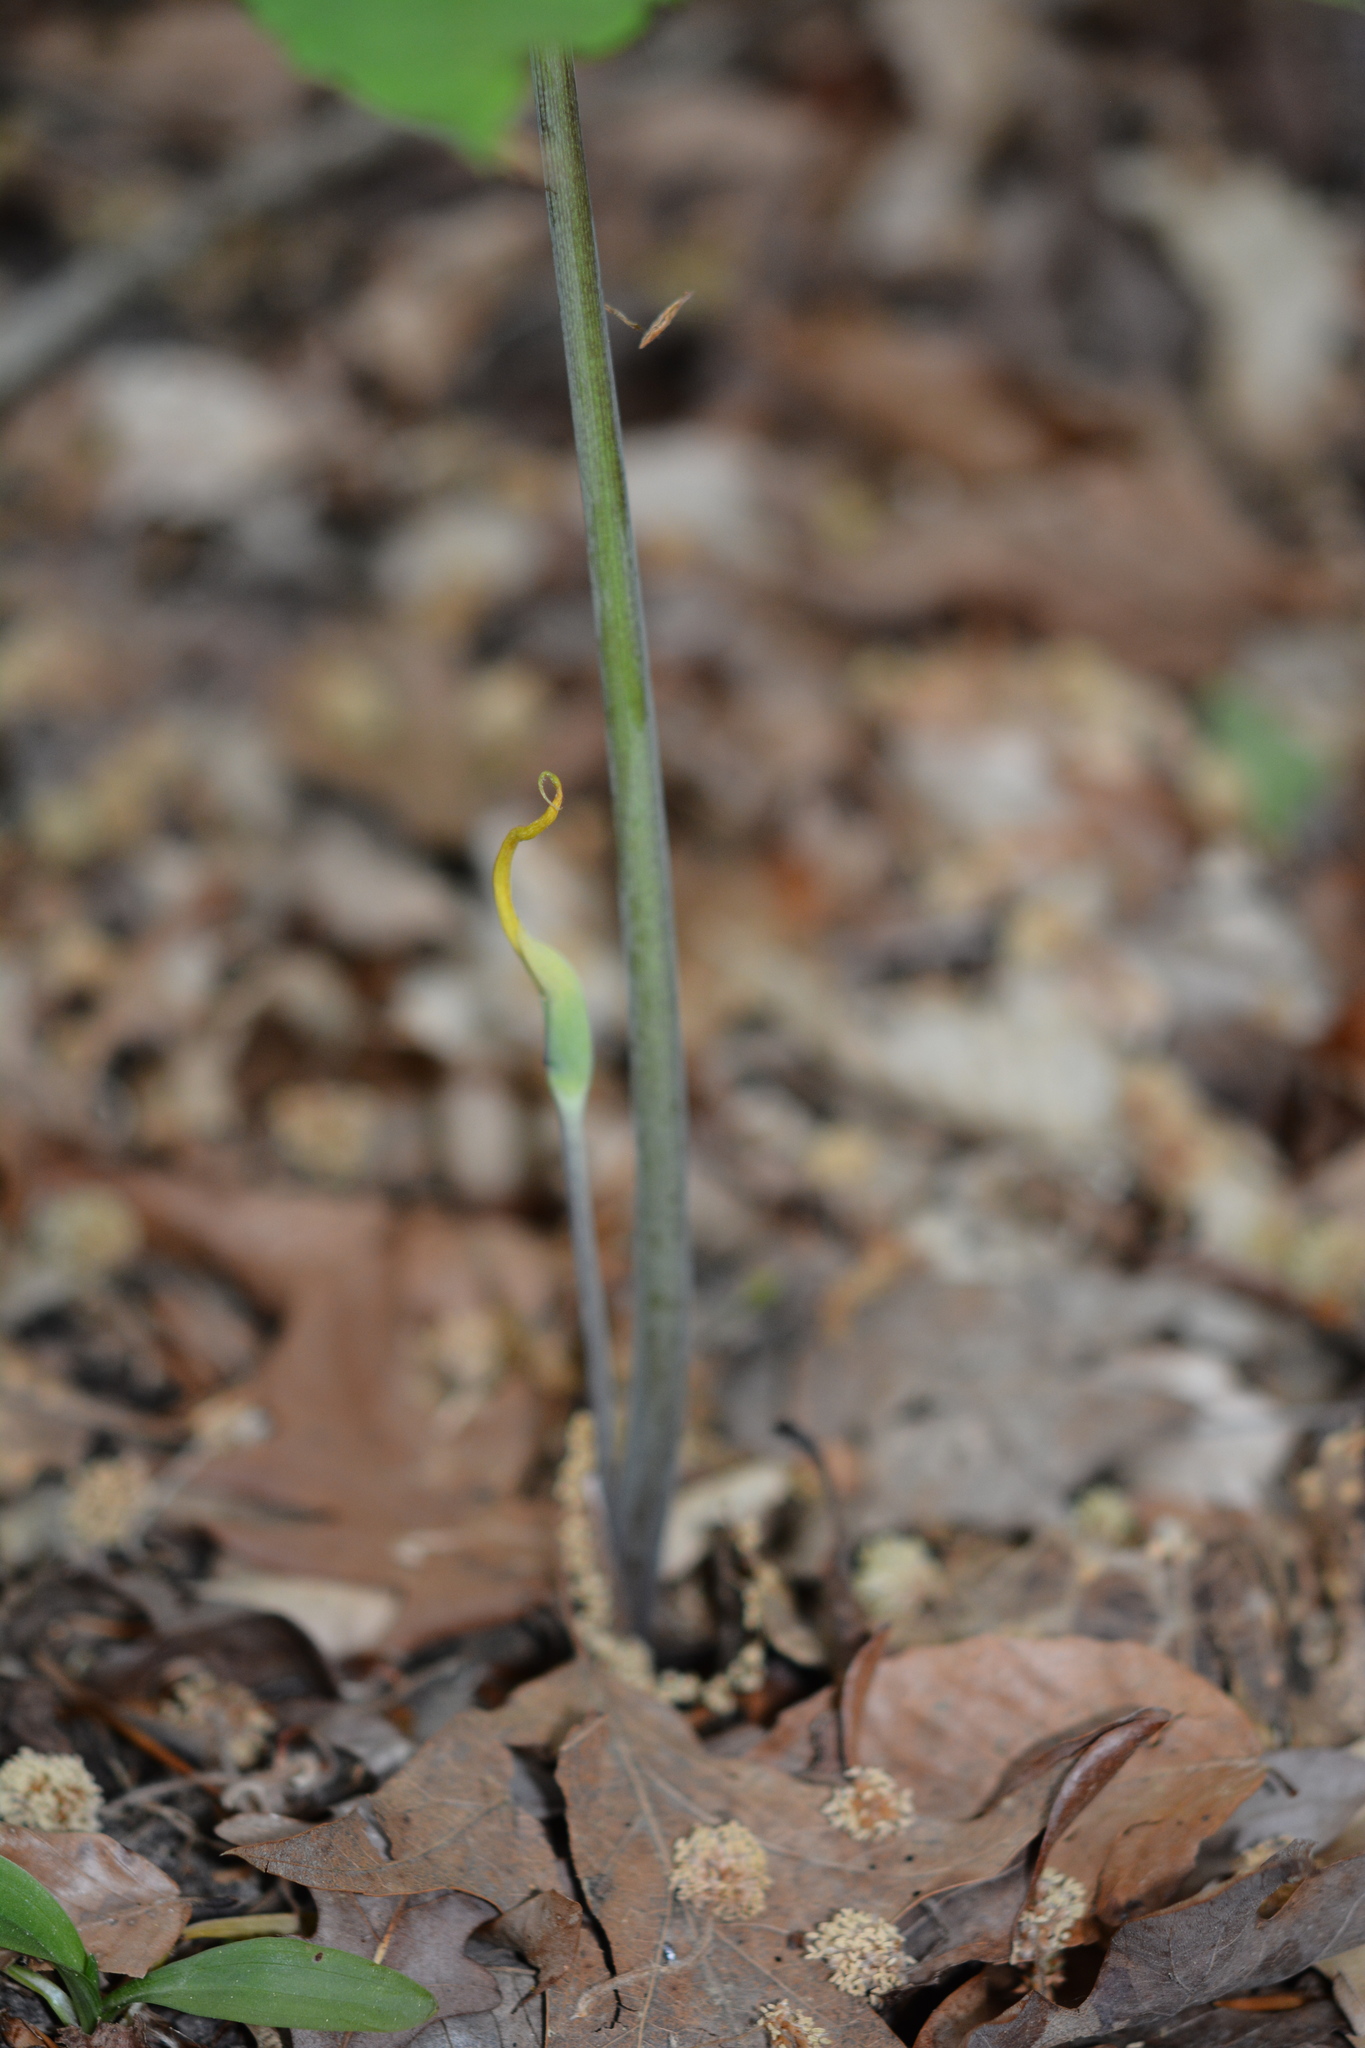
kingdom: Plantae
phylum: Tracheophyta
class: Liliopsida
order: Alismatales
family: Araceae
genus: Arisaema
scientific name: Arisaema dracontium
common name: Dragon-arum
